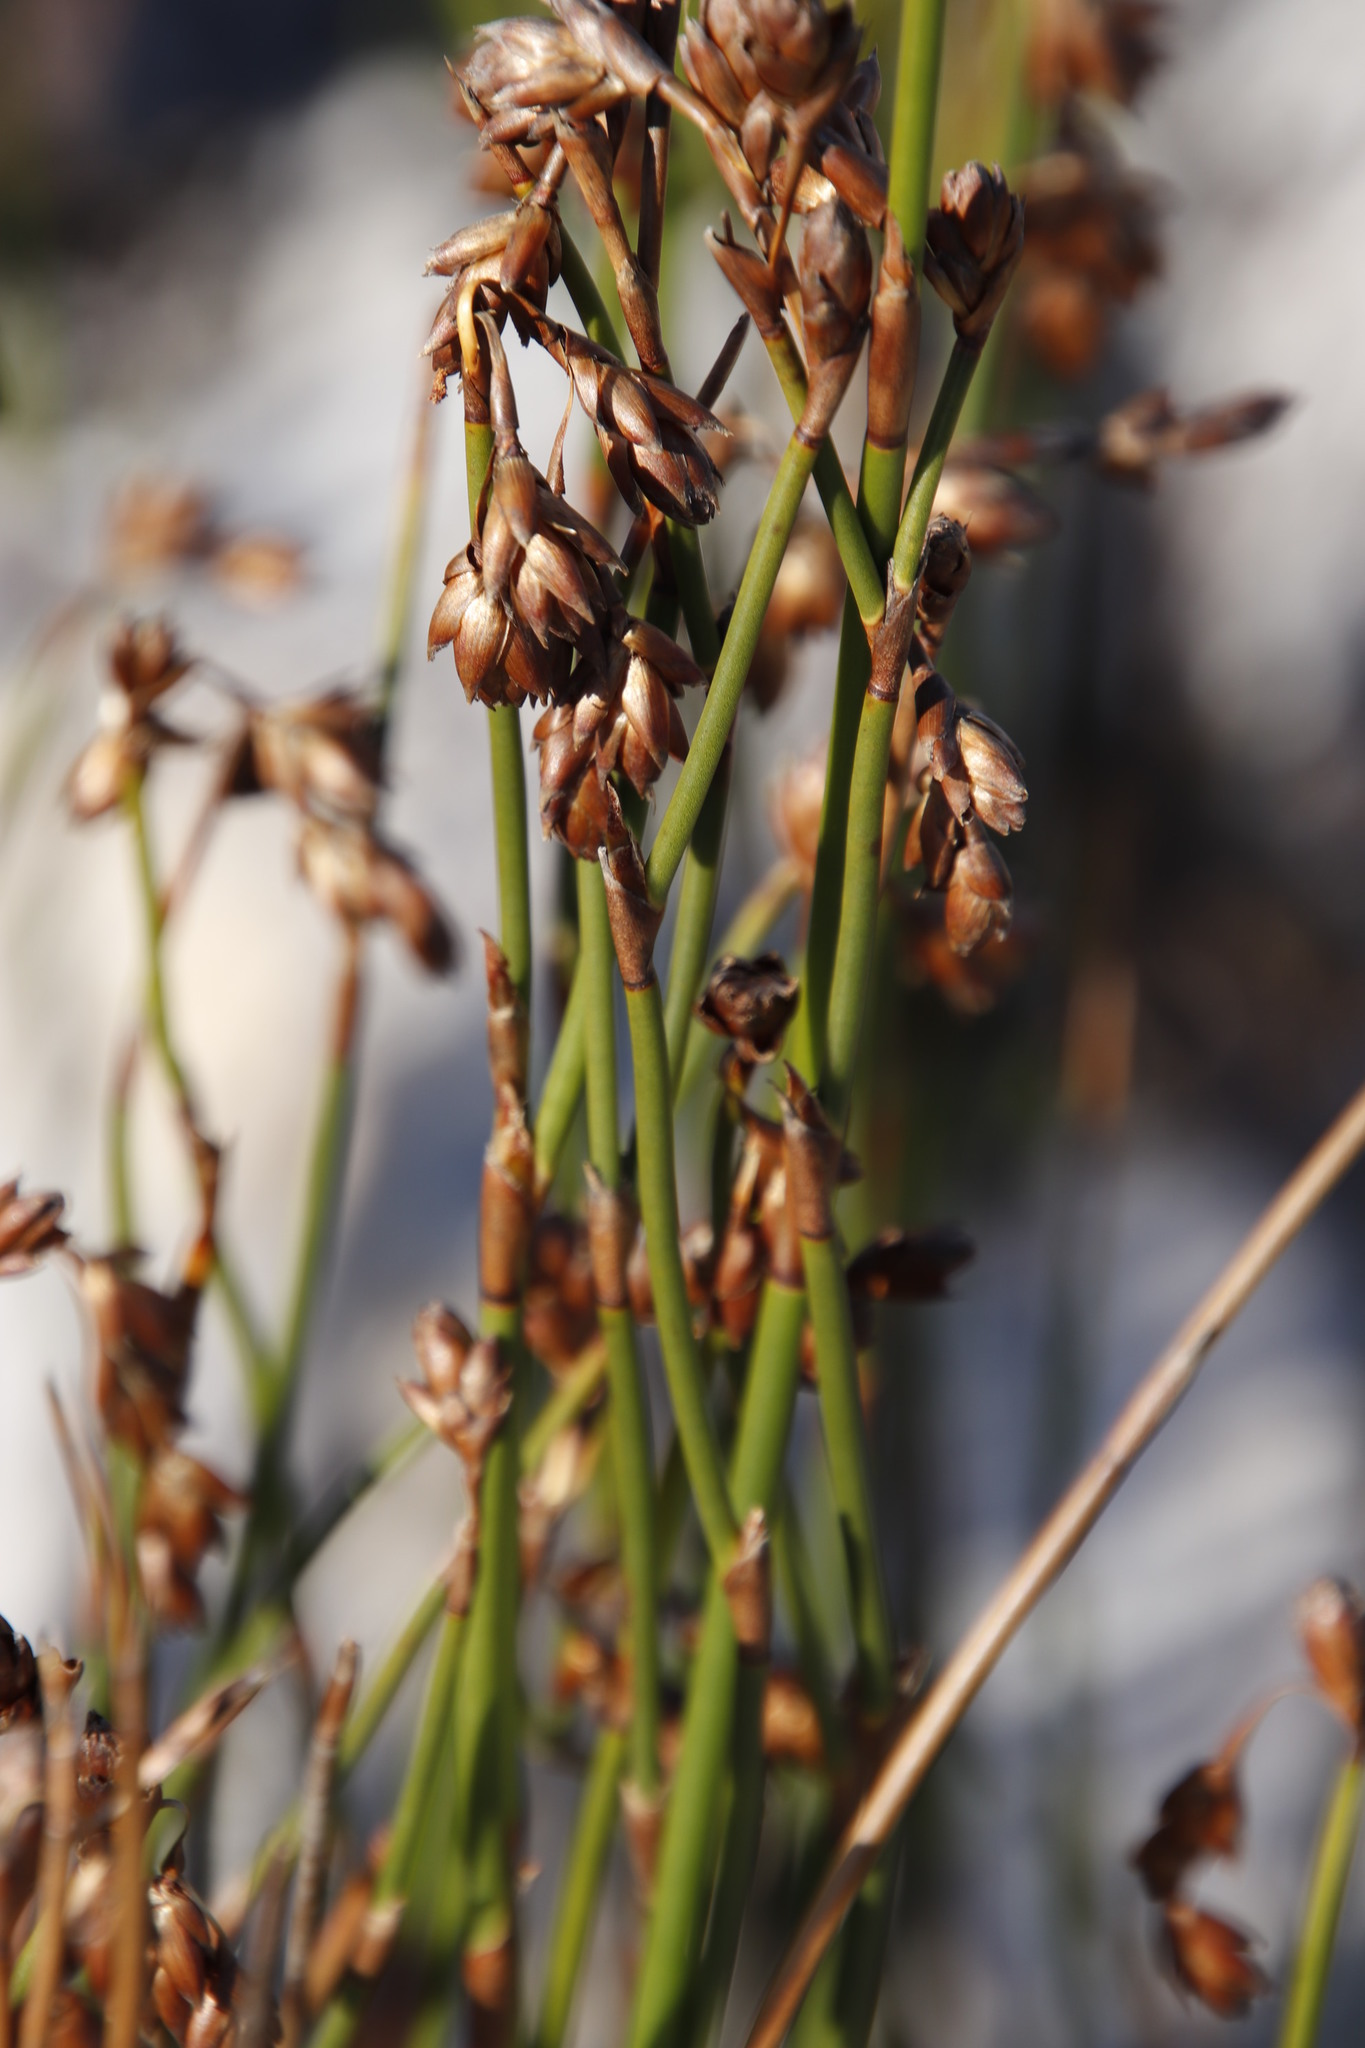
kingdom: Plantae
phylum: Tracheophyta
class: Liliopsida
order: Poales
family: Restionaceae
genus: Restio
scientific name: Restio egregius
